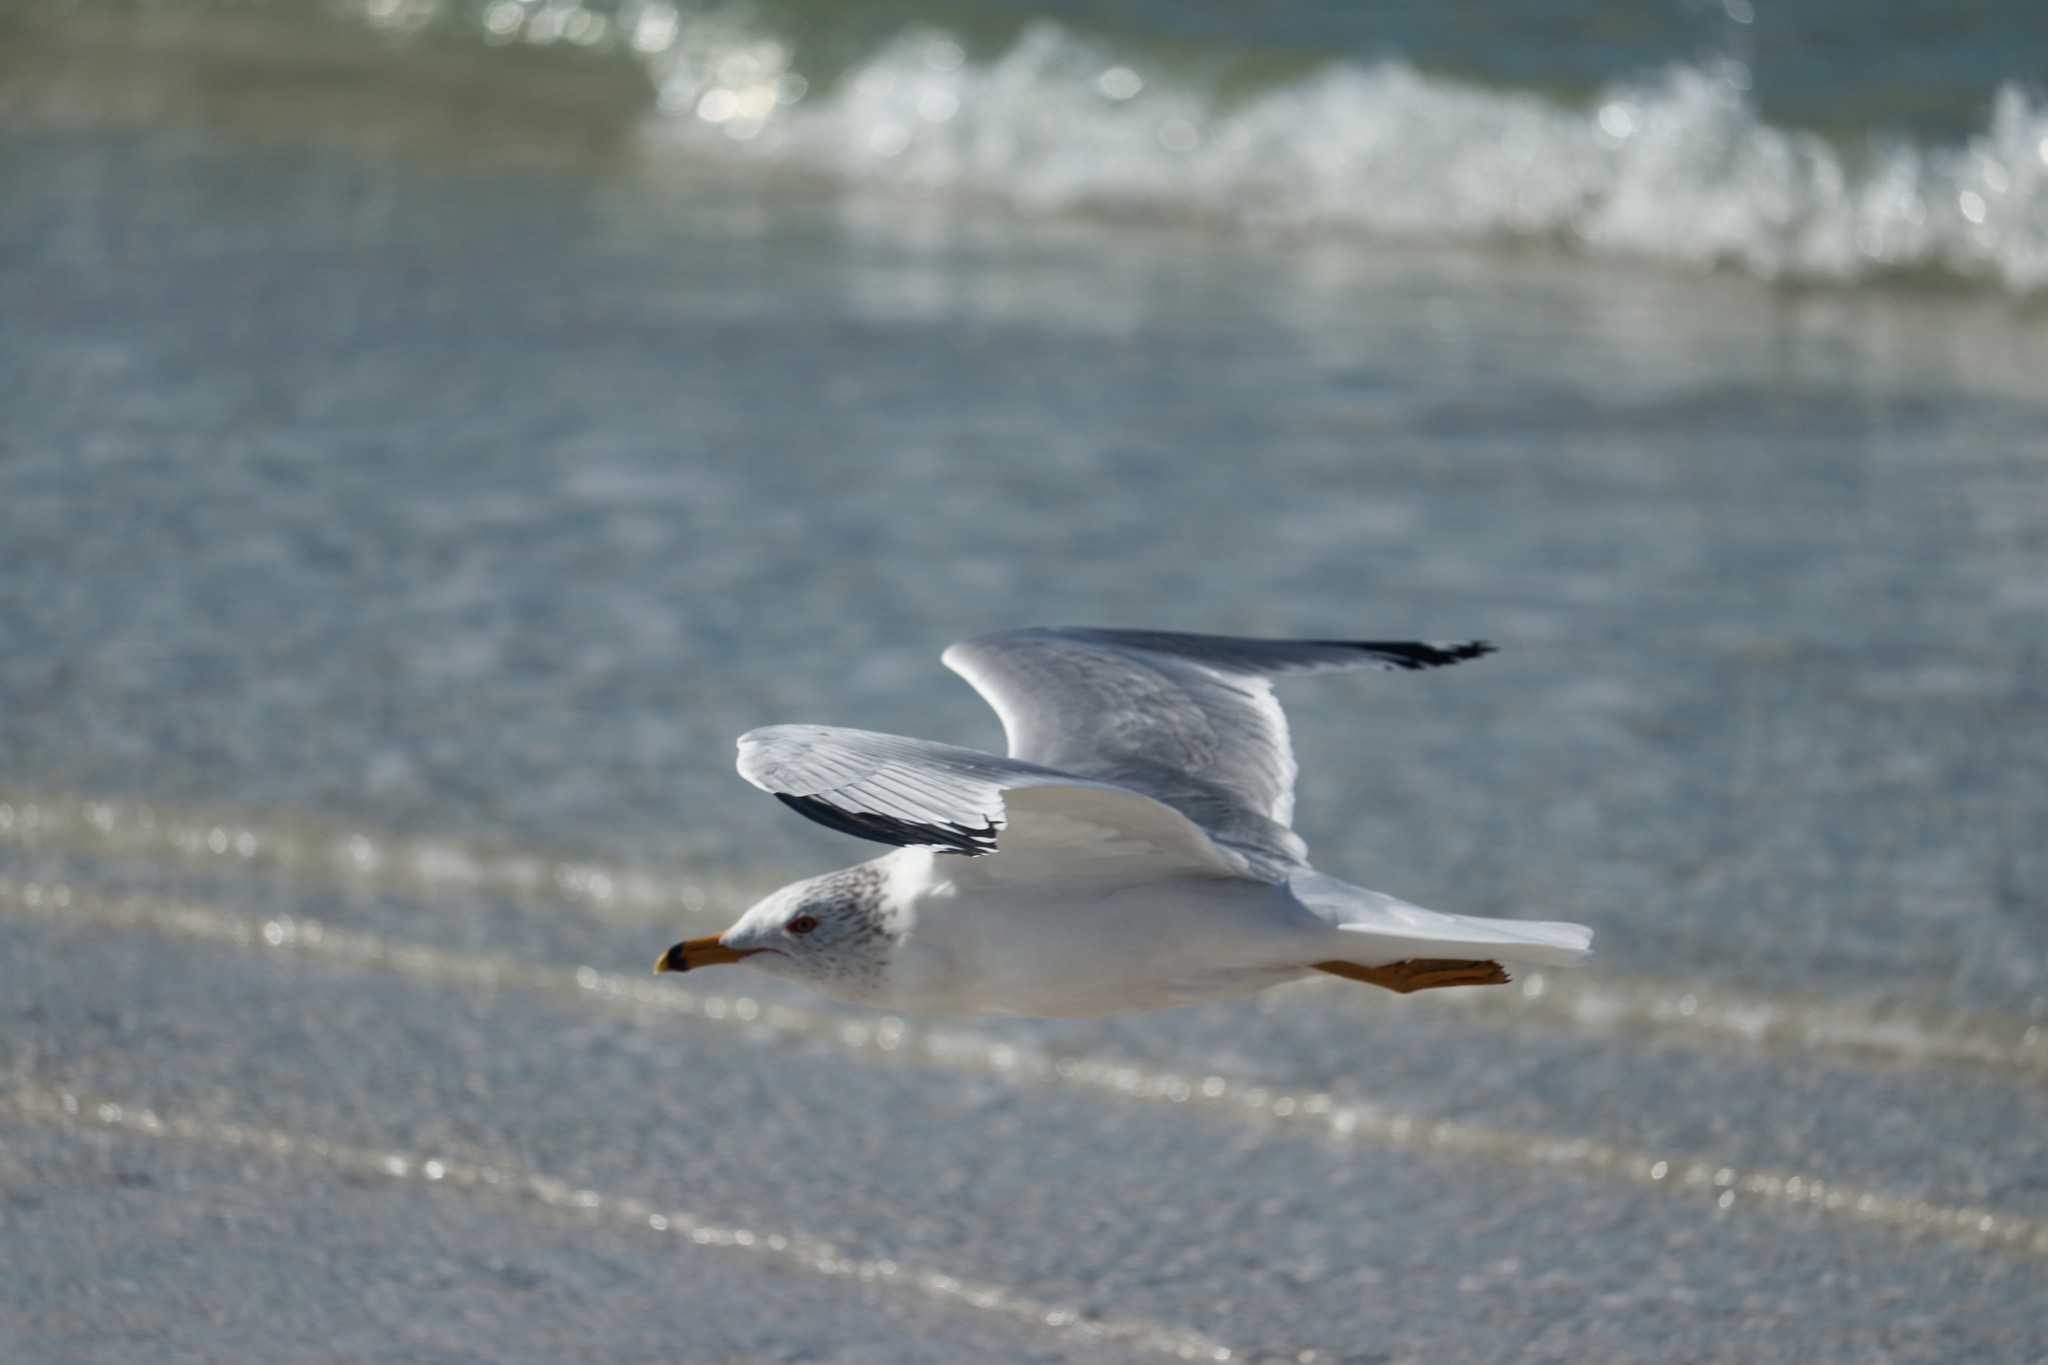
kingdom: Animalia
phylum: Chordata
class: Aves
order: Charadriiformes
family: Laridae
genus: Larus
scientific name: Larus delawarensis
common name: Ring-billed gull
